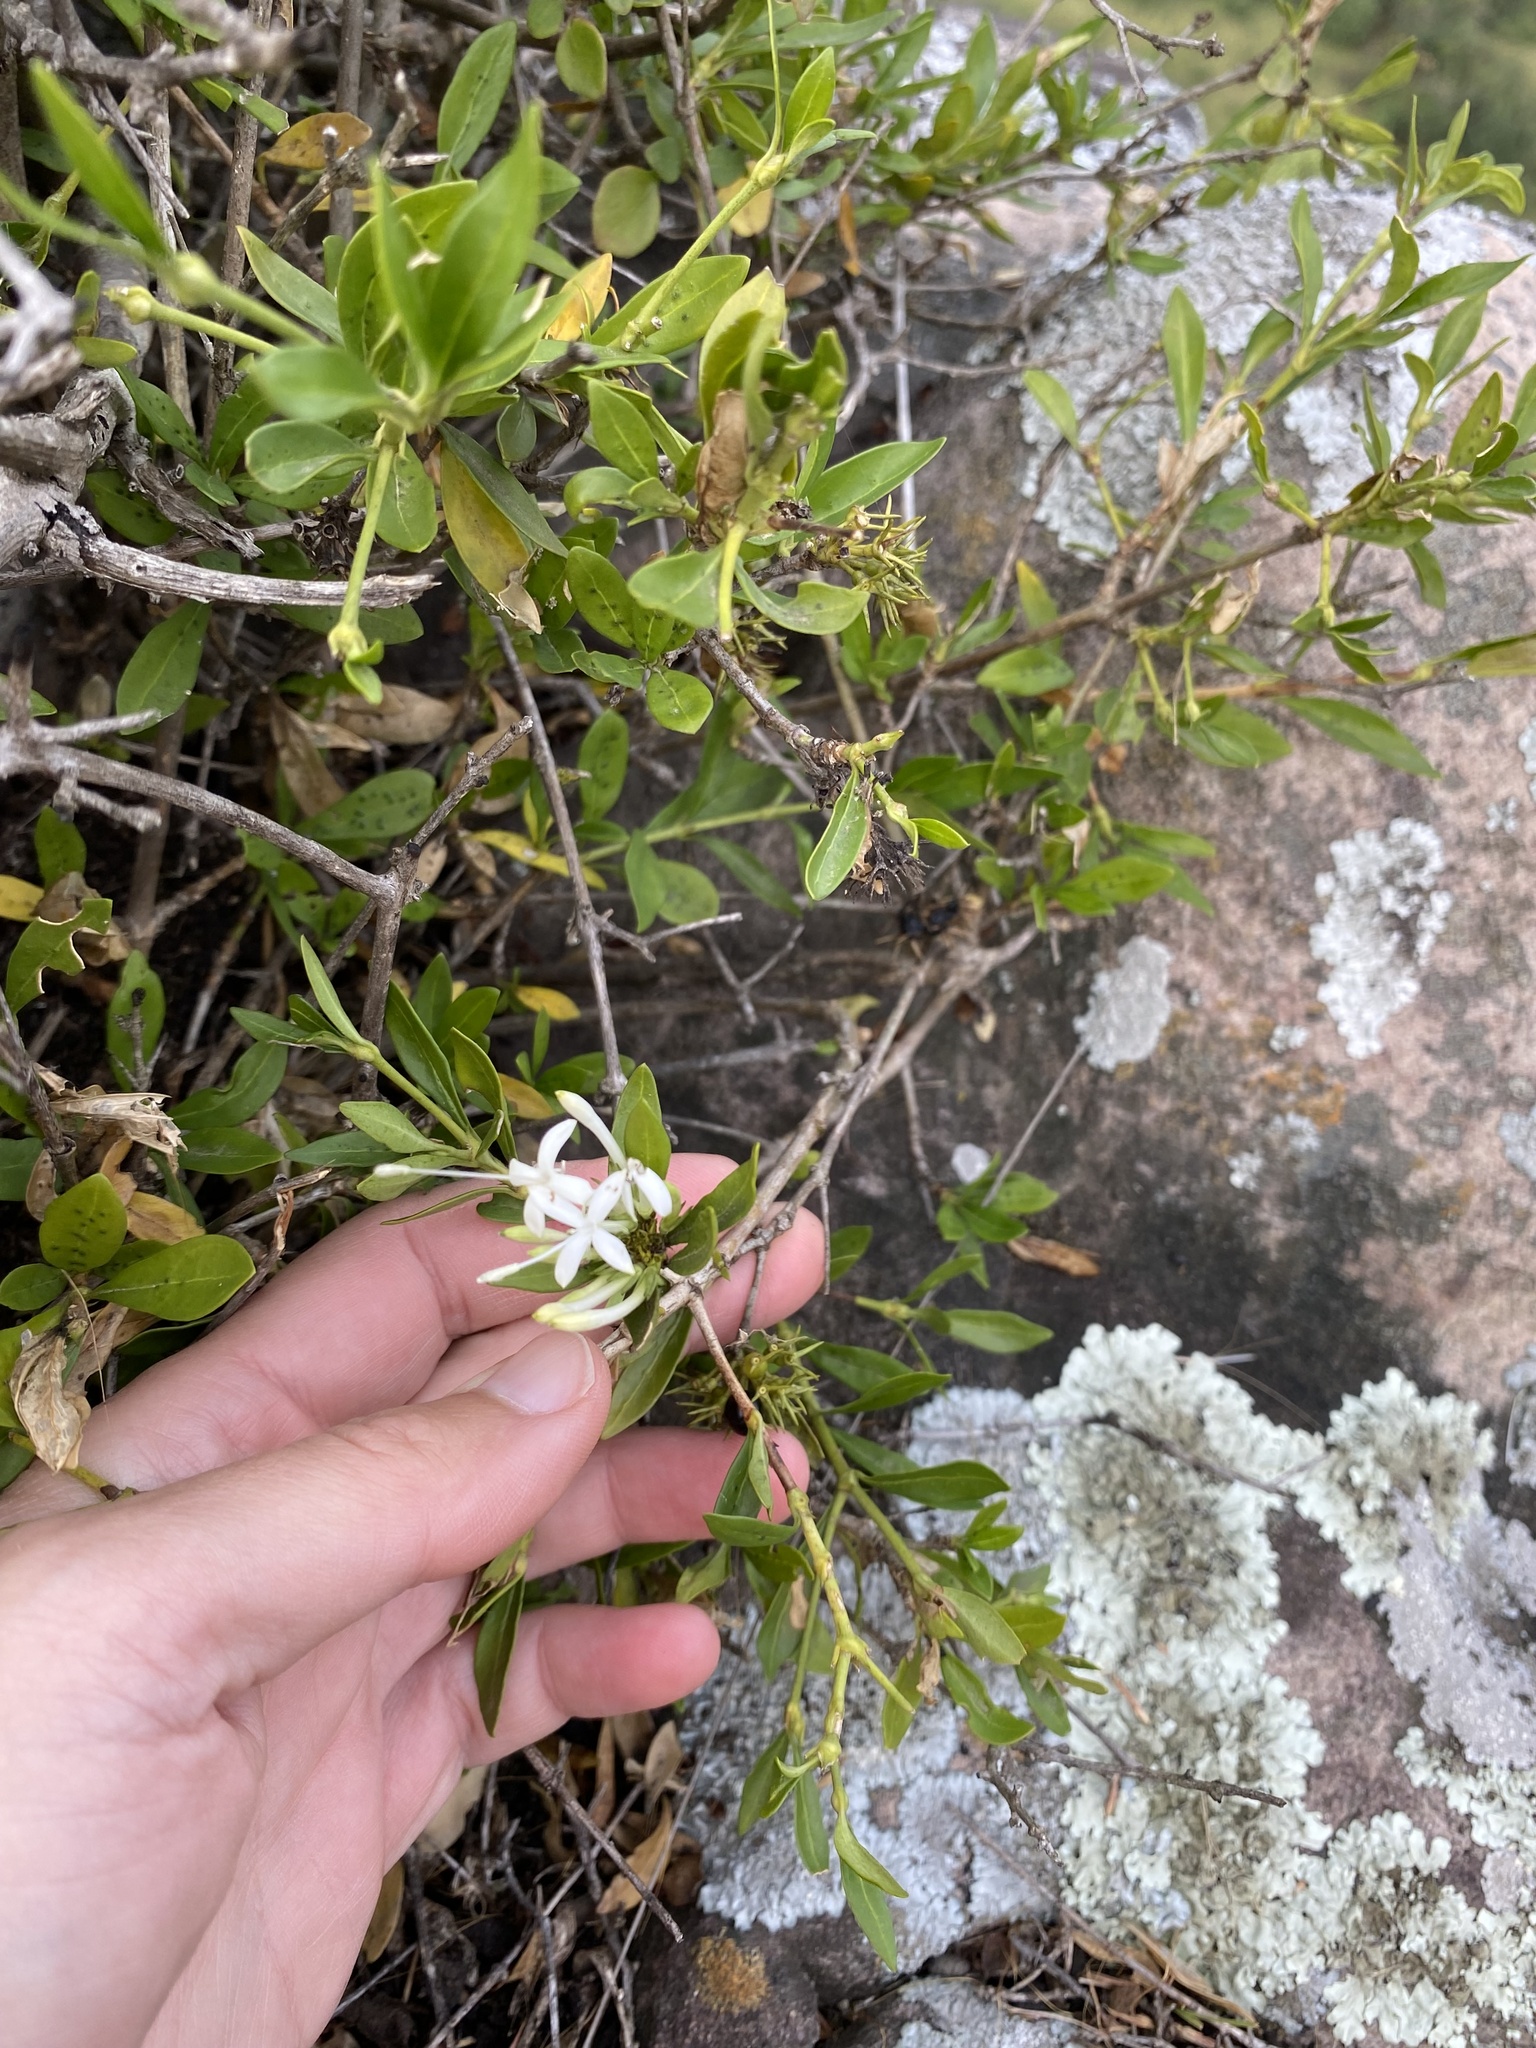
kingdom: Plantae
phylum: Tracheophyta
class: Magnoliopsida
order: Gentianales
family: Rubiaceae
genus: Pavetta
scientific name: Pavetta lanceolata
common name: Weeping brides-bush
